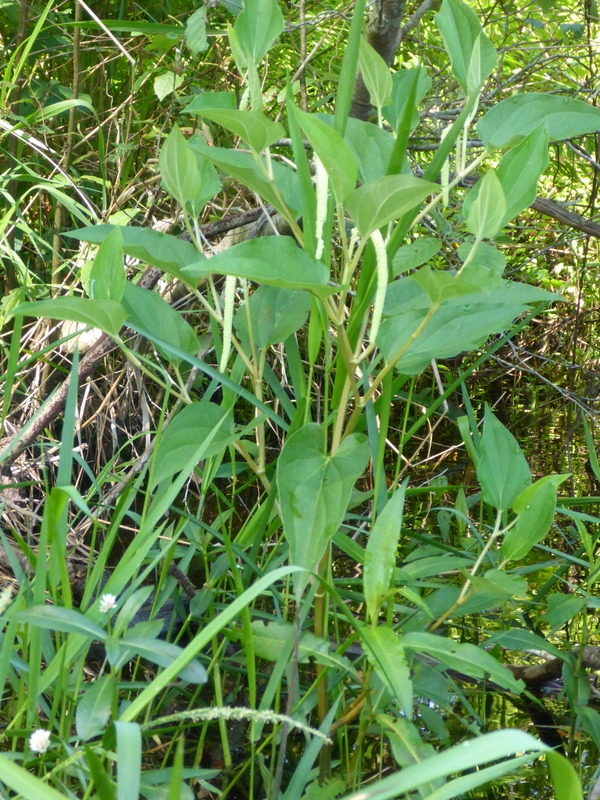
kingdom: Plantae
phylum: Tracheophyta
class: Magnoliopsida
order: Piperales
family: Saururaceae
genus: Saururus
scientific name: Saururus cernuus
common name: Lizard's-tail
